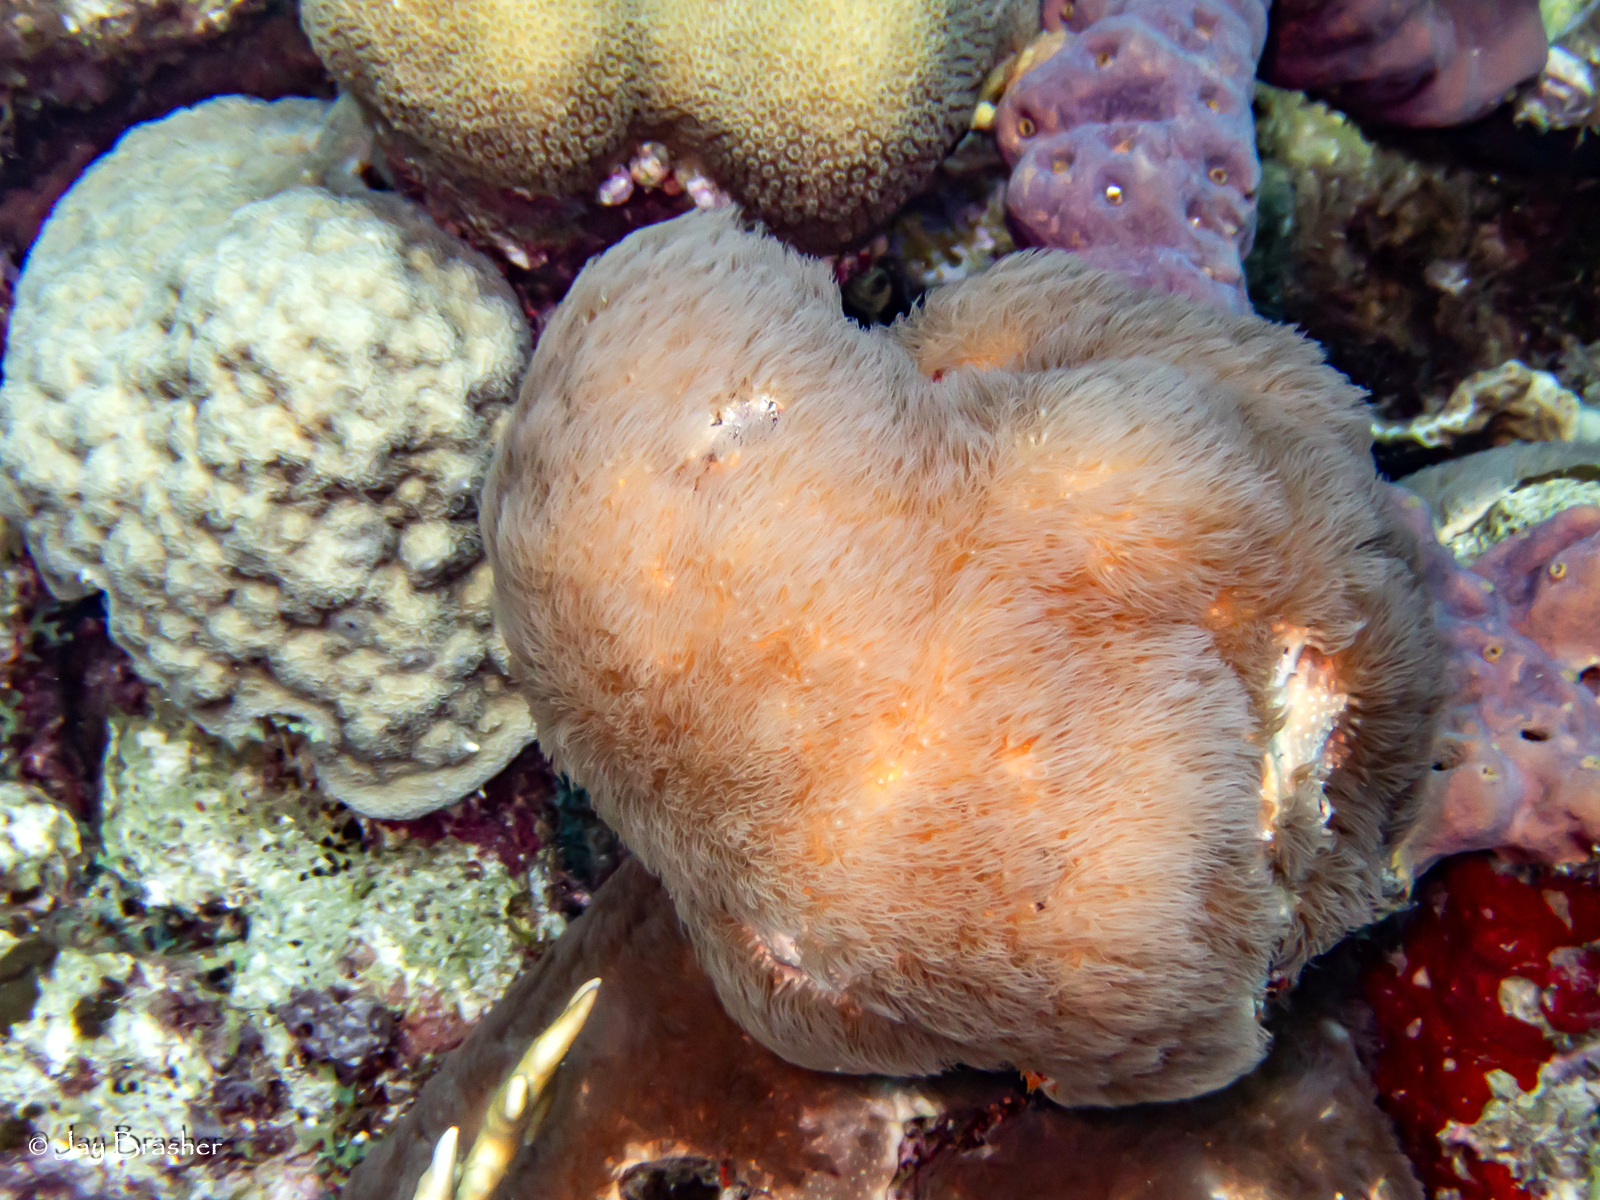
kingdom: Animalia
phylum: Cnidaria
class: Anthozoa
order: Scleralcyonacea
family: Erythropodiidae
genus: Erythropodium
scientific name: Erythropodium caribaeorum
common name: Encrusting gorgonian
